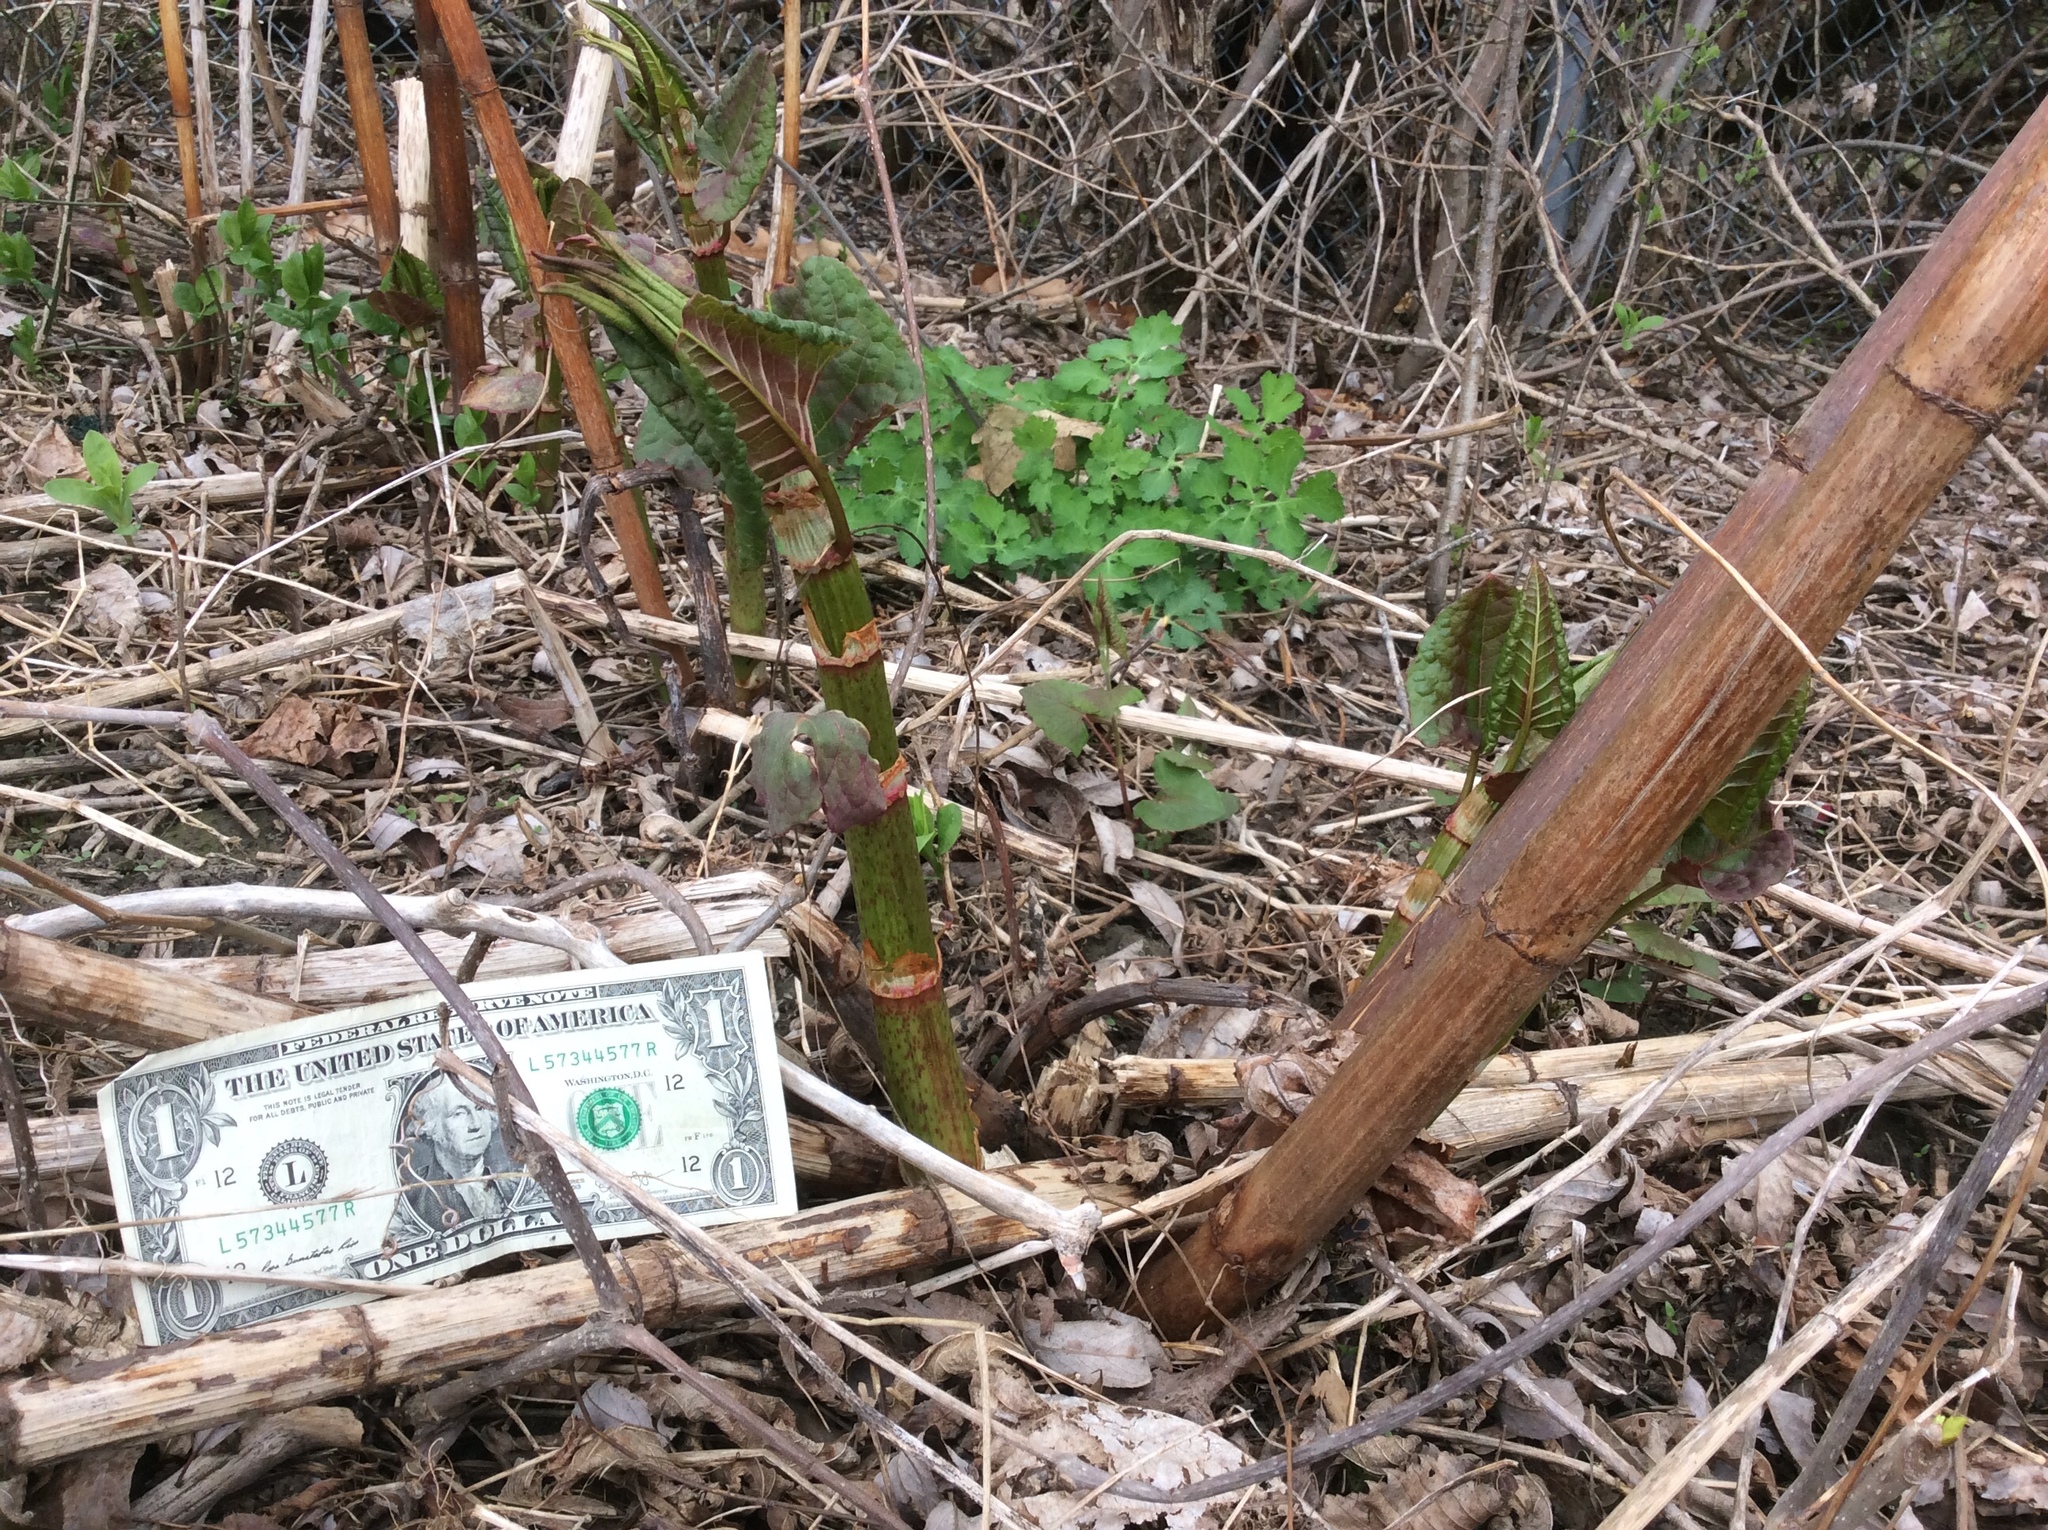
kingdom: Plantae
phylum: Tracheophyta
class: Magnoliopsida
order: Caryophyllales
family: Polygonaceae
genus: Reynoutria
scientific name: Reynoutria japonica
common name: Japanese knotweed
